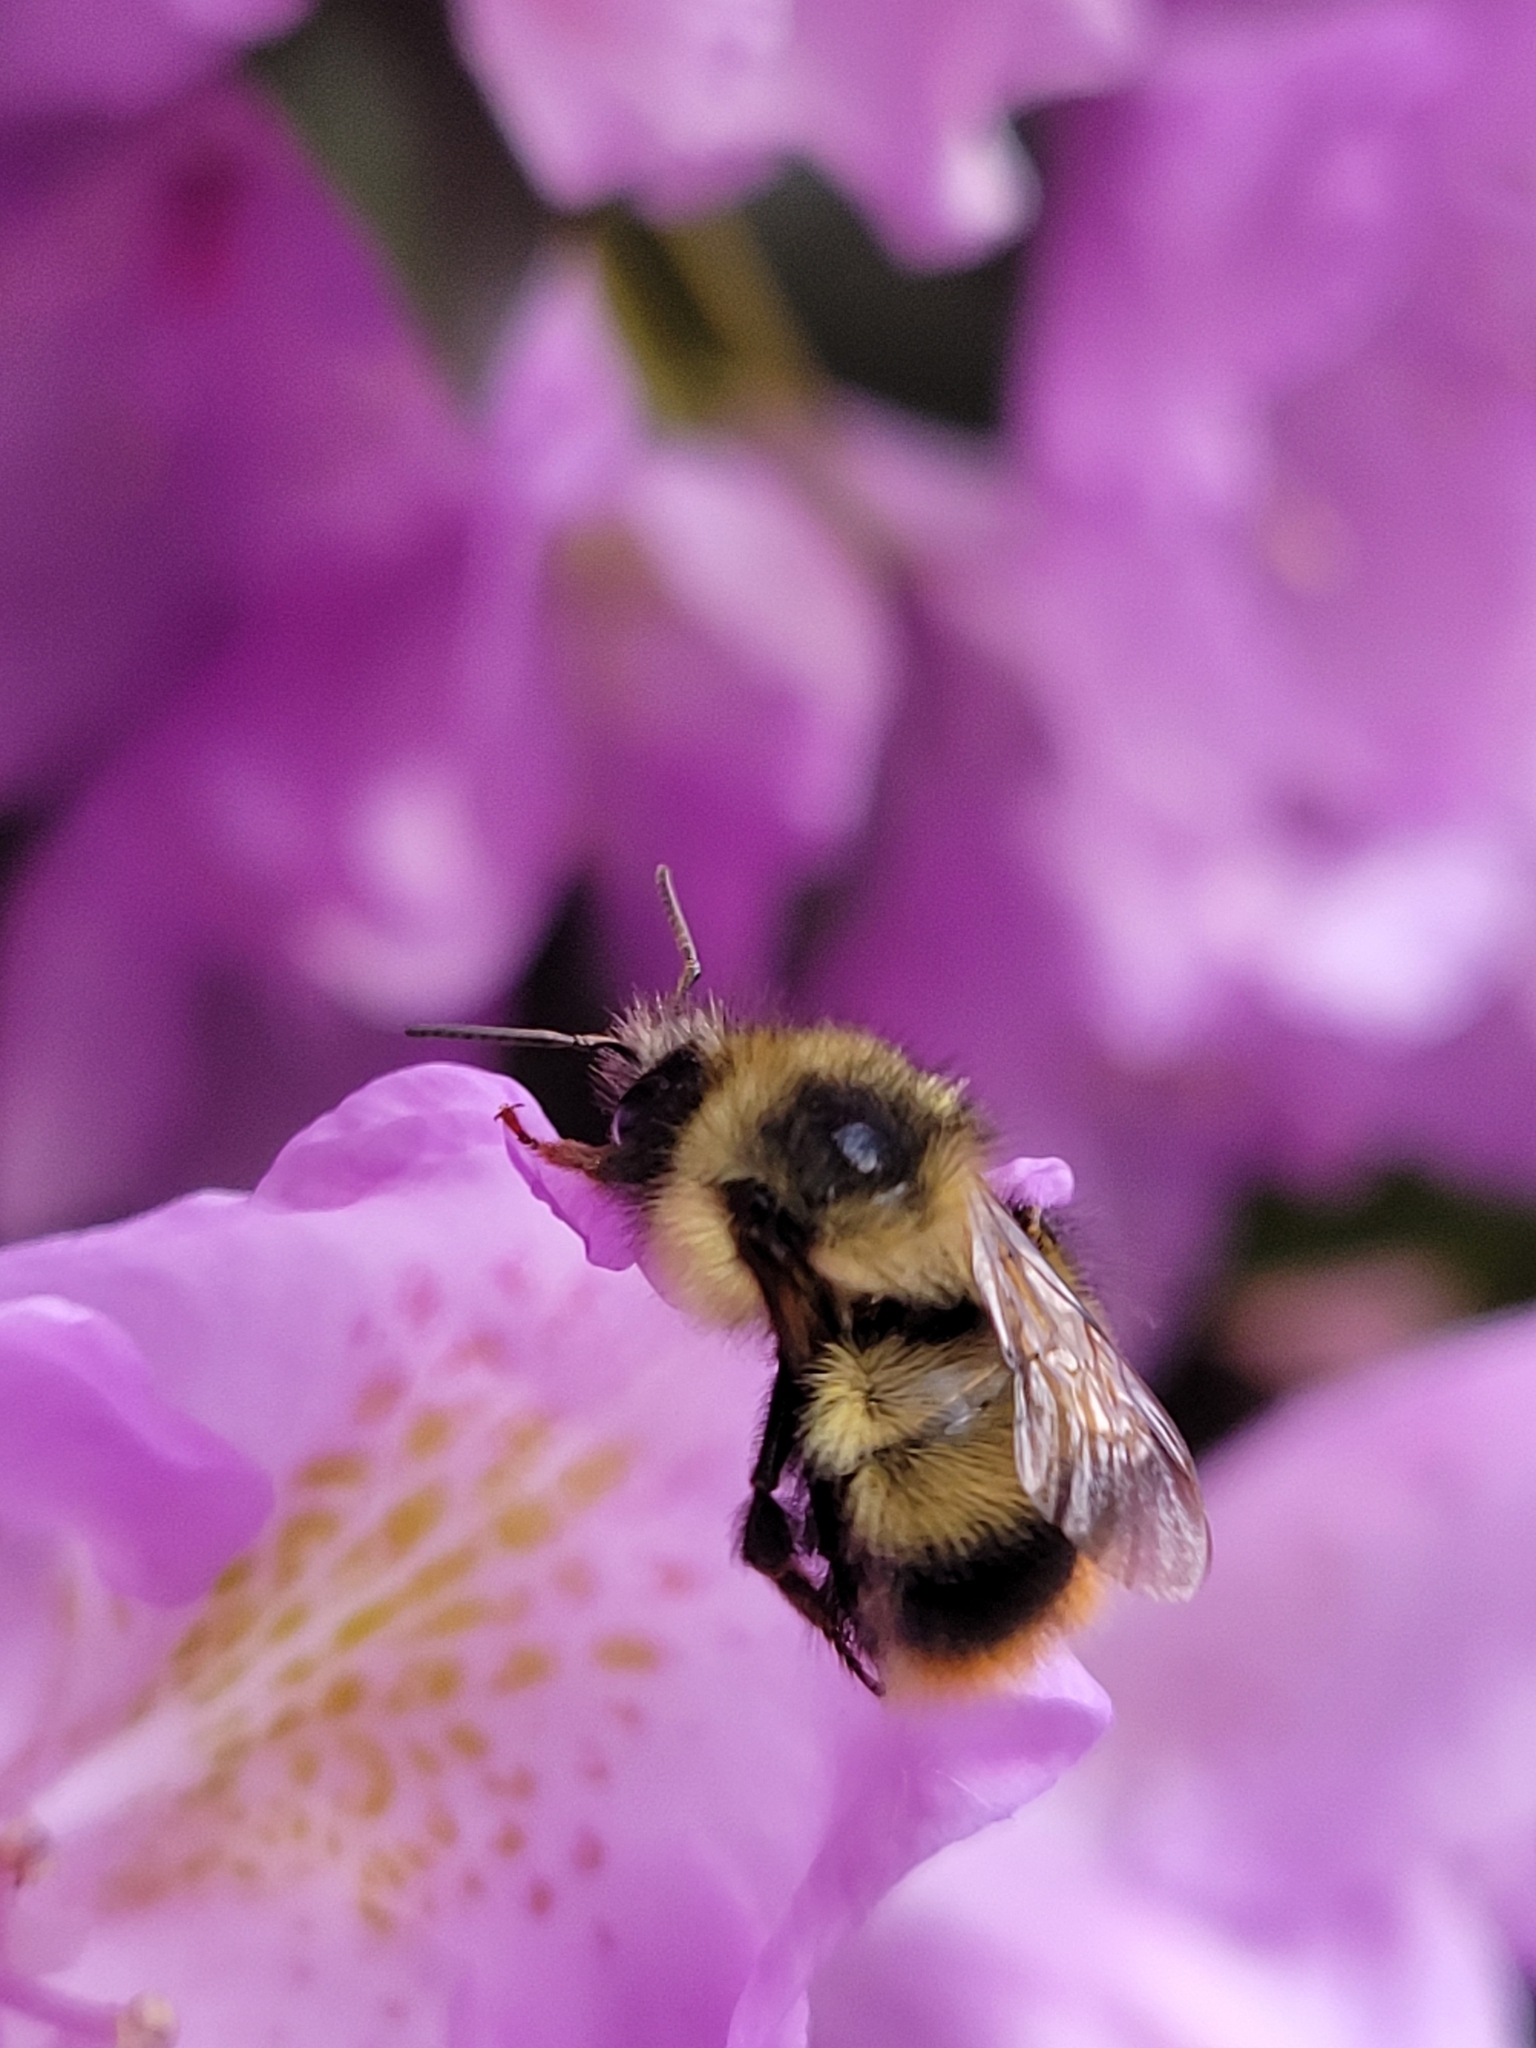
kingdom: Animalia
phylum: Arthropoda
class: Insecta
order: Hymenoptera
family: Apidae
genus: Bombus
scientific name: Bombus mixtus
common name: Fuzzy-horned bumble bee
